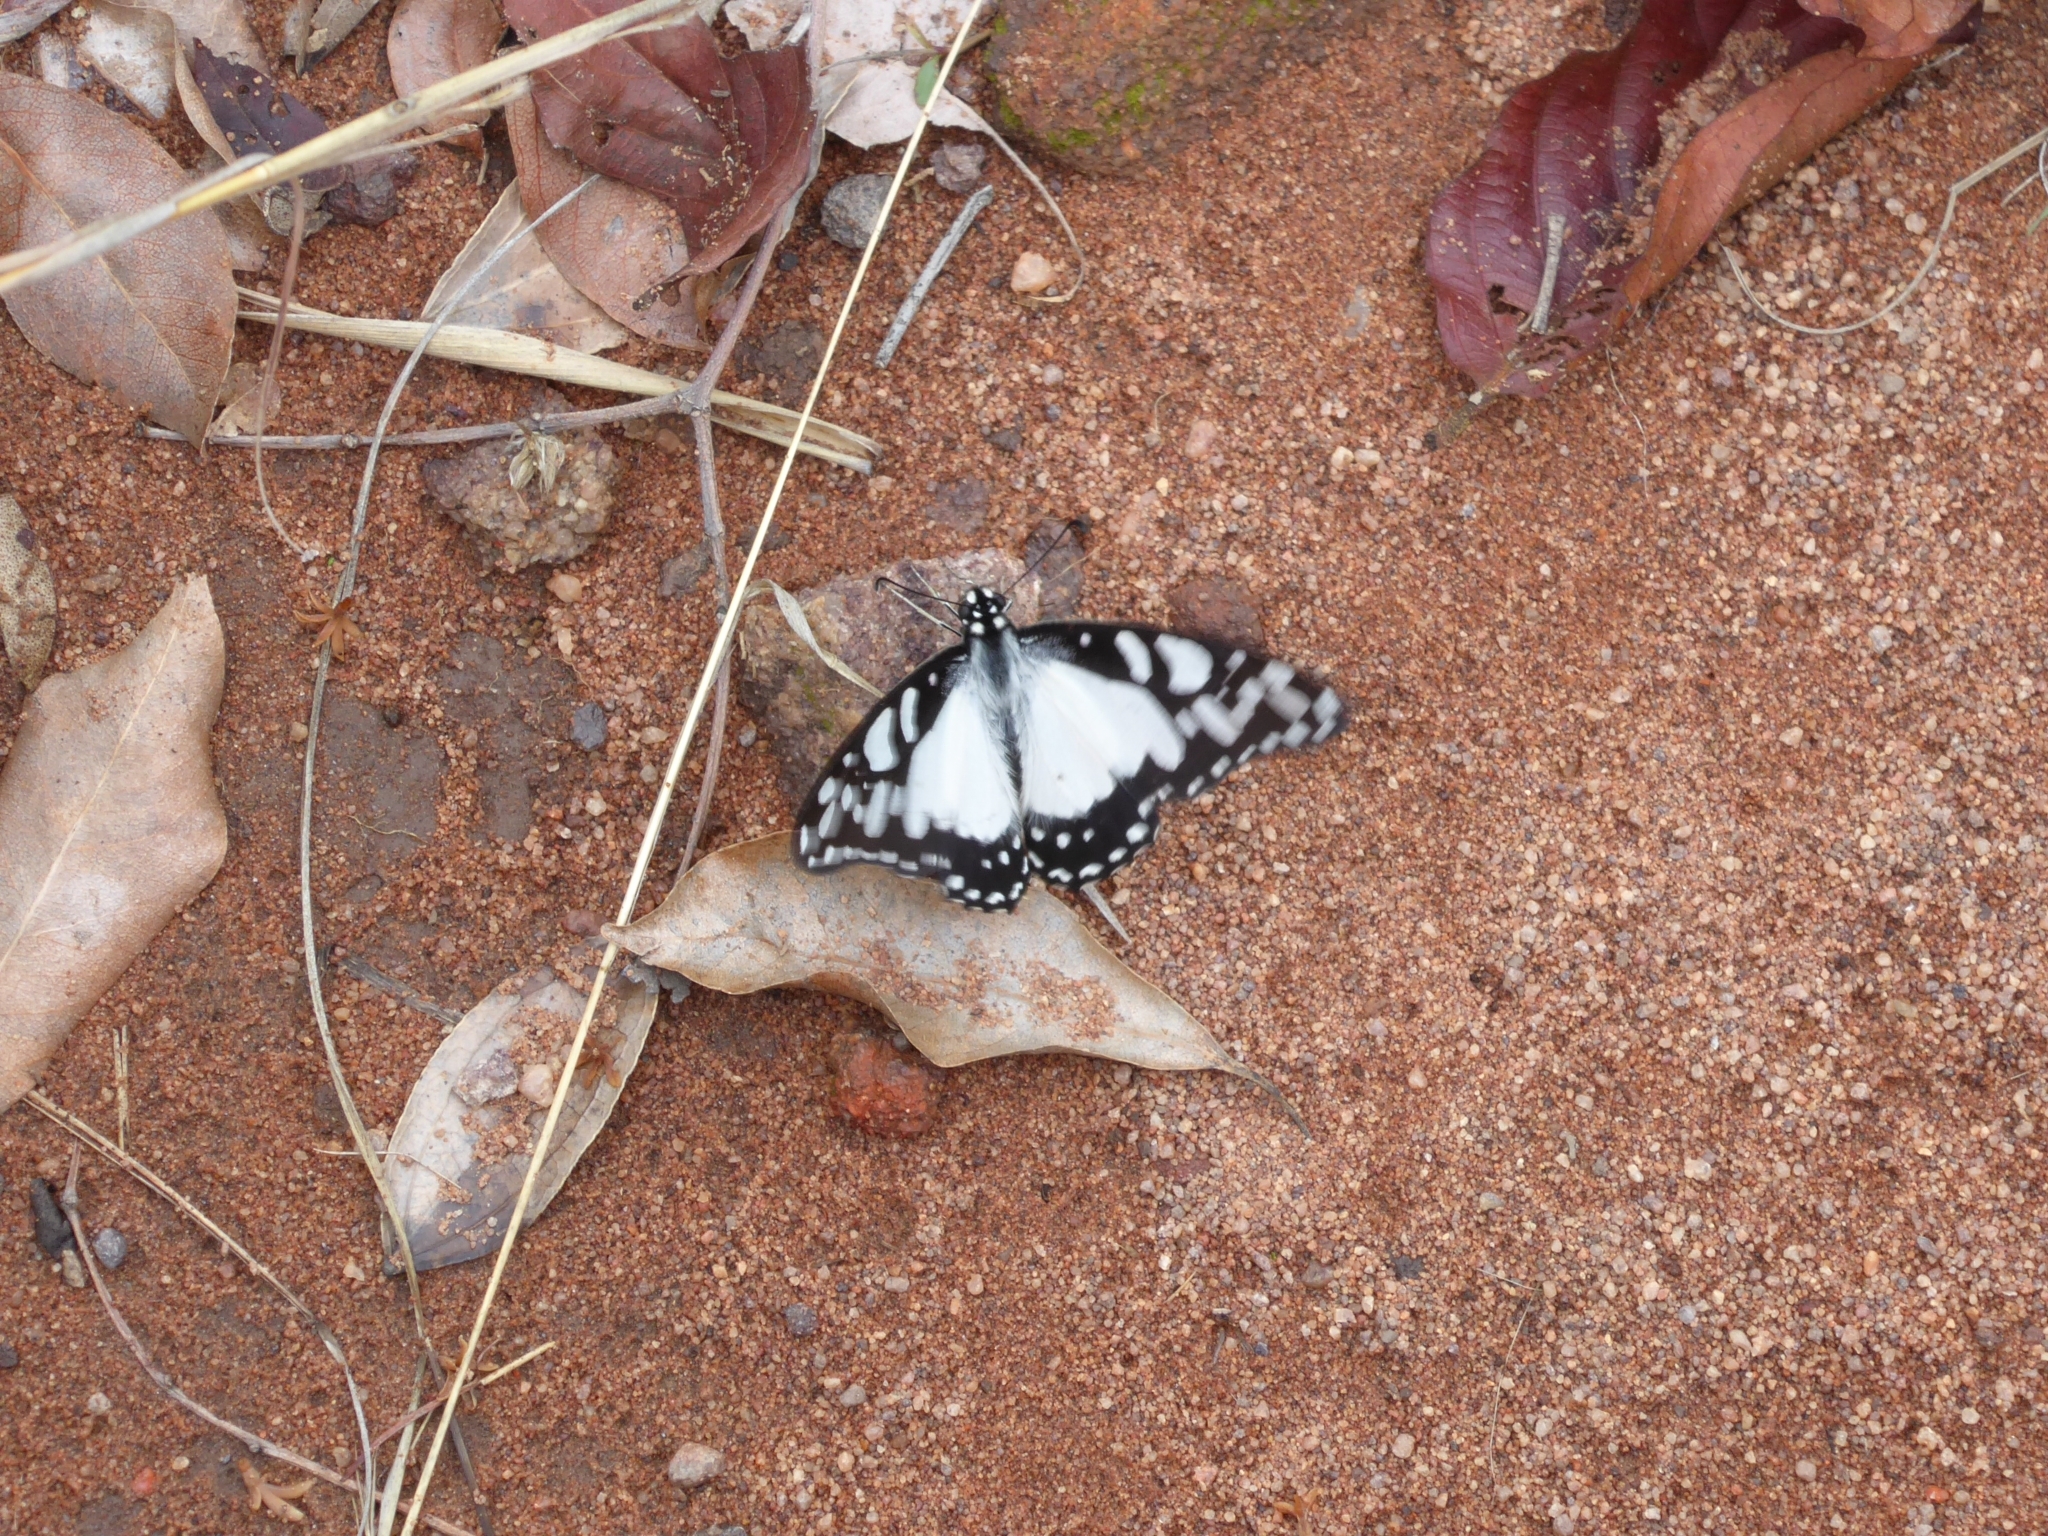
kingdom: Animalia
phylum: Arthropoda
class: Insecta
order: Lepidoptera
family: Papilionidae
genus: Graphium
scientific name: Graphium morania
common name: Small white-lady swordtail
